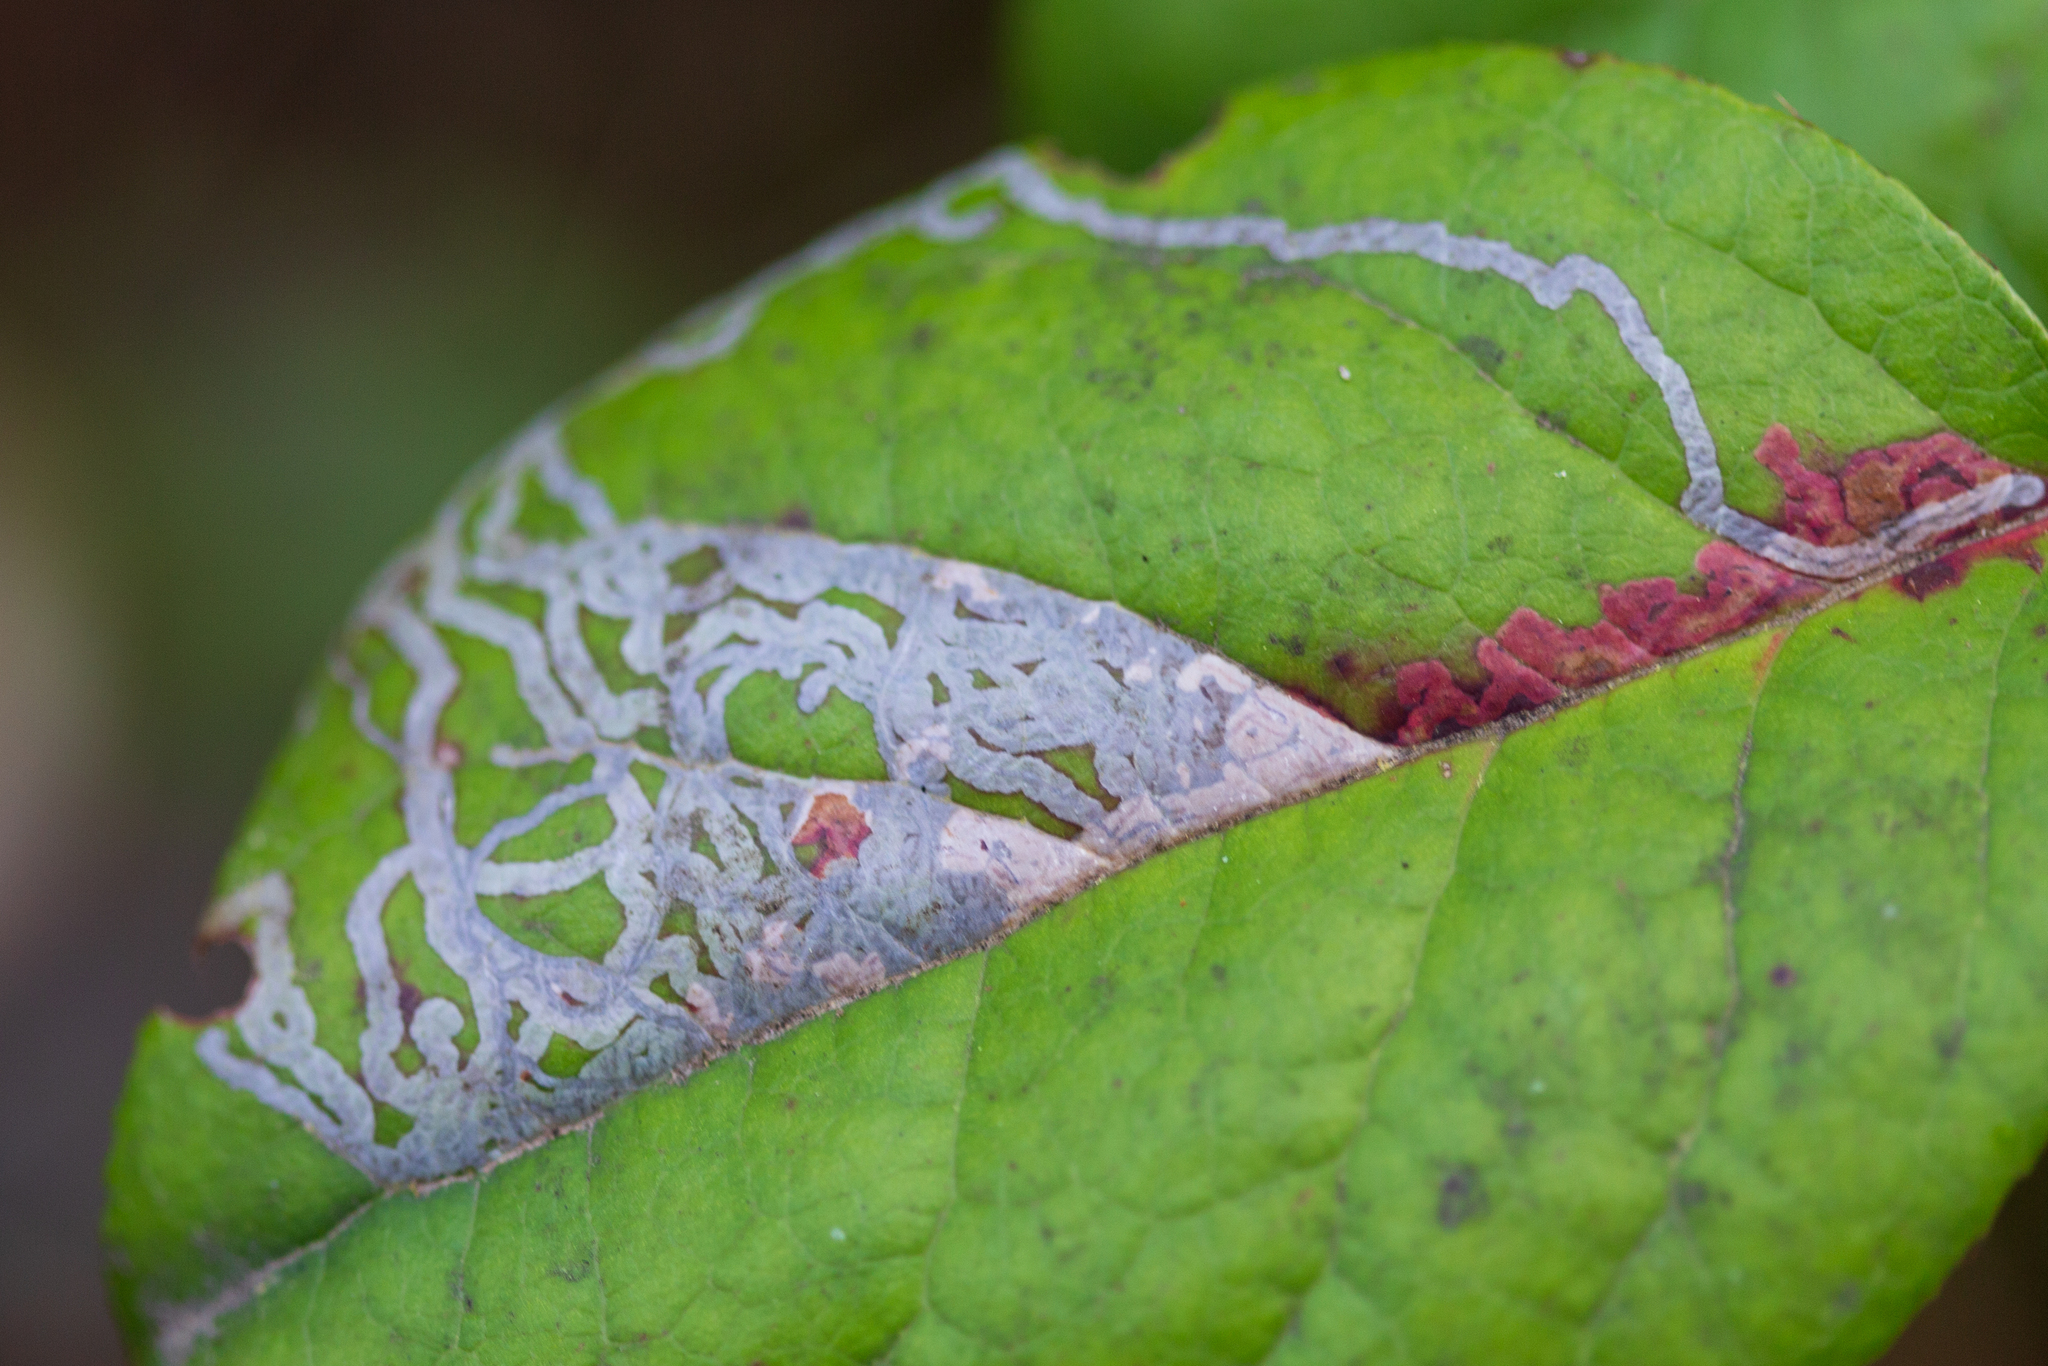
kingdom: Animalia
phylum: Arthropoda
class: Insecta
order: Lepidoptera
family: Gracillariidae
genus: Marmara
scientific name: Marmara arbutiella
